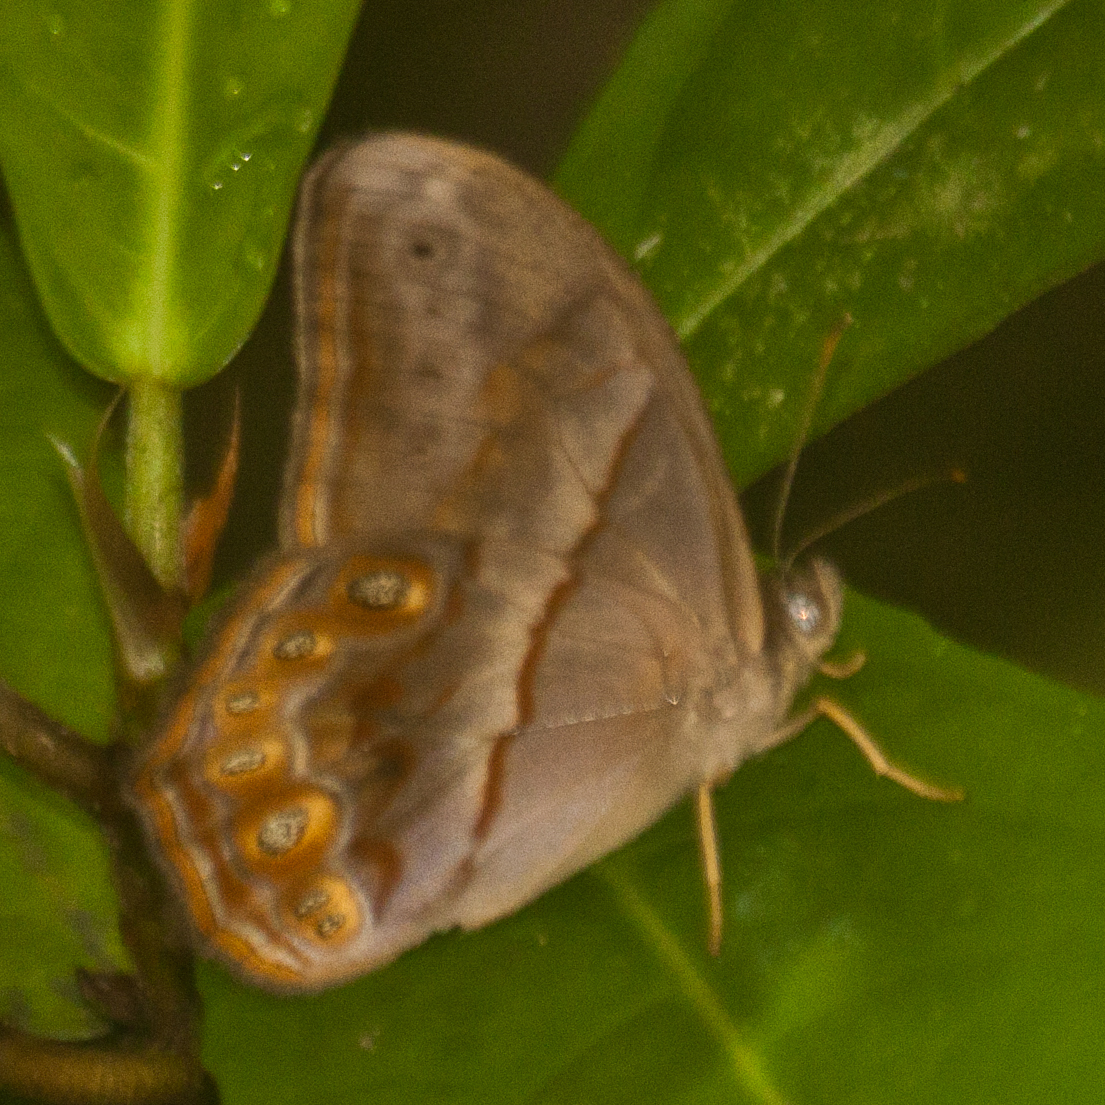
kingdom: Animalia
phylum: Arthropoda
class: Insecta
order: Lepidoptera
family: Nymphalidae
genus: Lethe
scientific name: Lethe minerva
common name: Banded red forester
